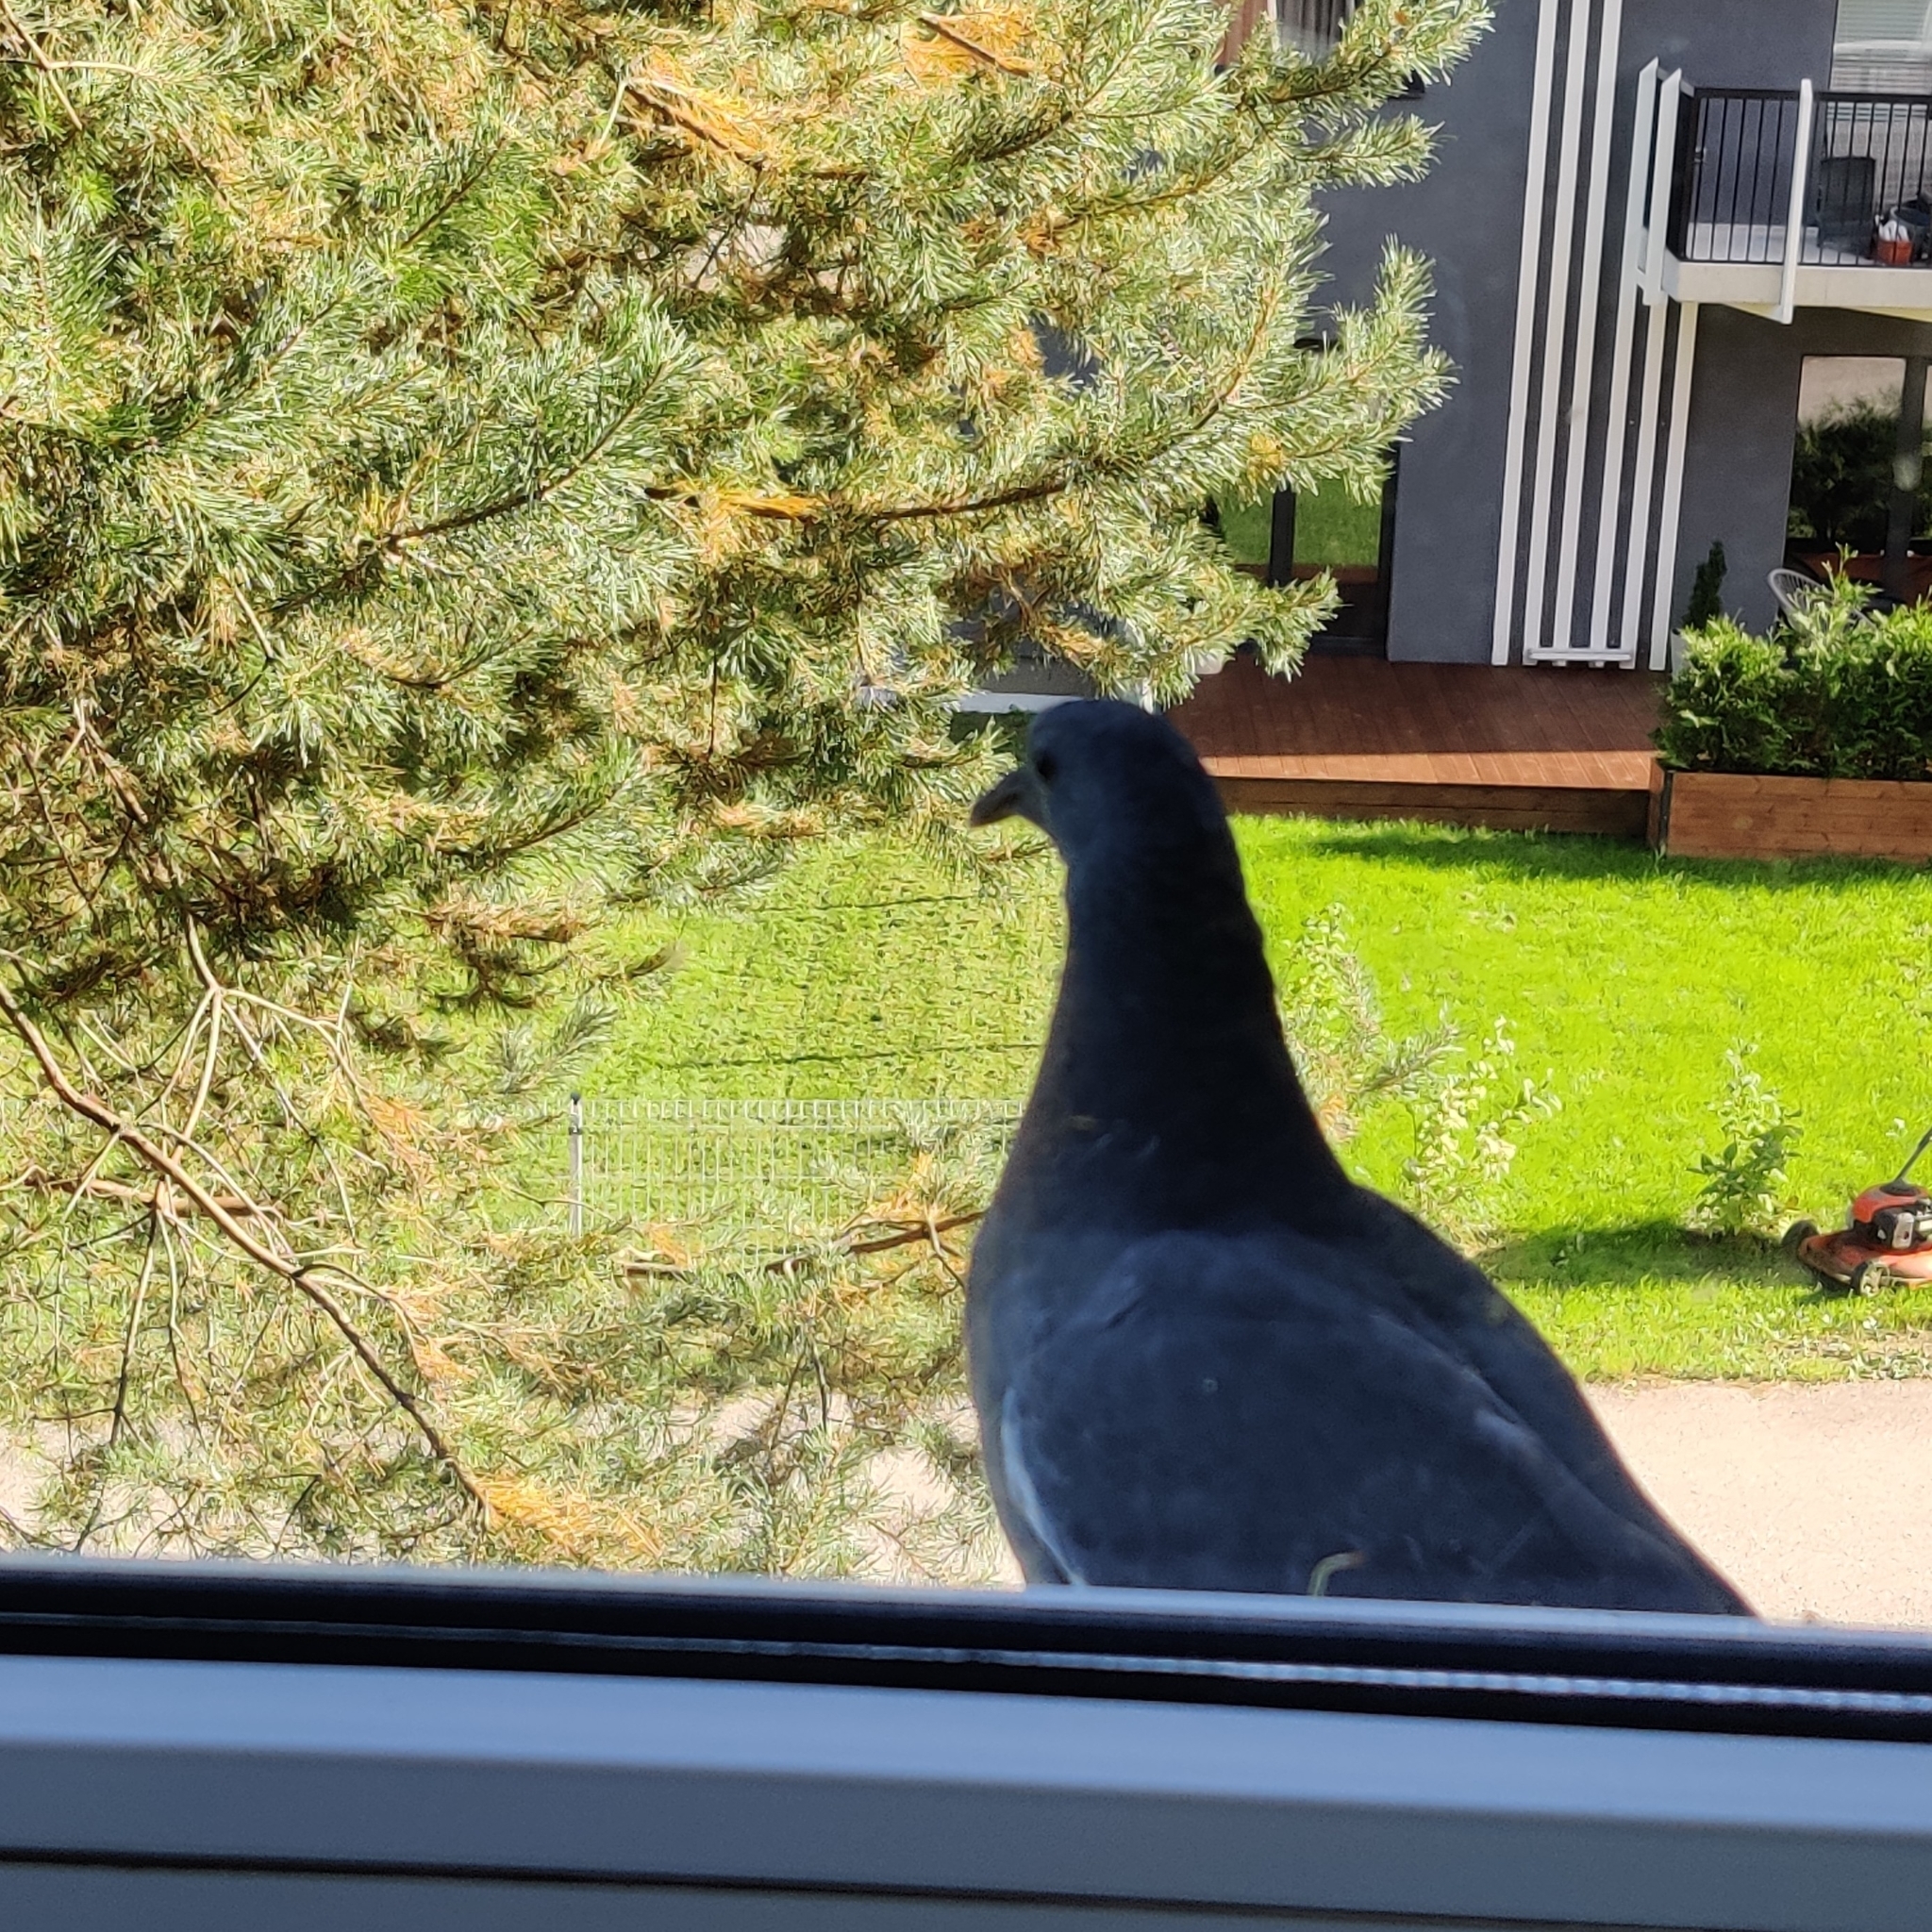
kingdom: Animalia
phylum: Chordata
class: Aves
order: Columbiformes
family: Columbidae
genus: Columba
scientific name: Columba palumbus
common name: Common wood pigeon
